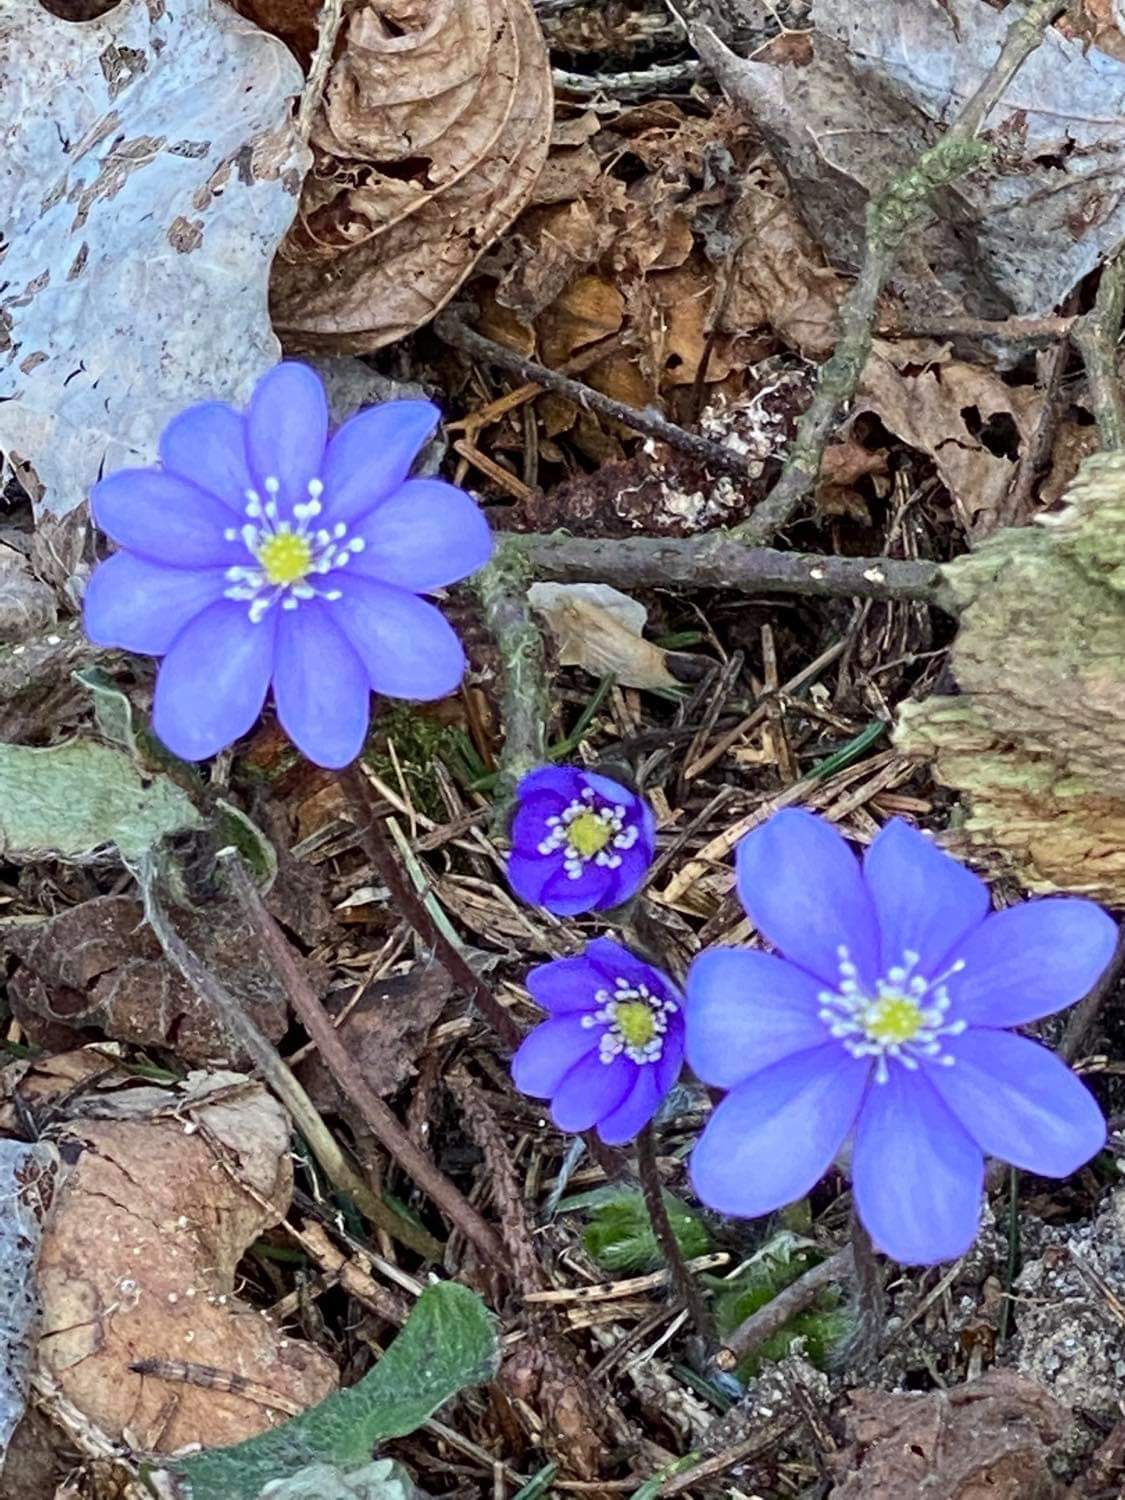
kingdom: Plantae
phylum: Tracheophyta
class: Magnoliopsida
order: Ranunculales
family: Ranunculaceae
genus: Hepatica
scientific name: Hepatica nobilis
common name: Liverleaf
